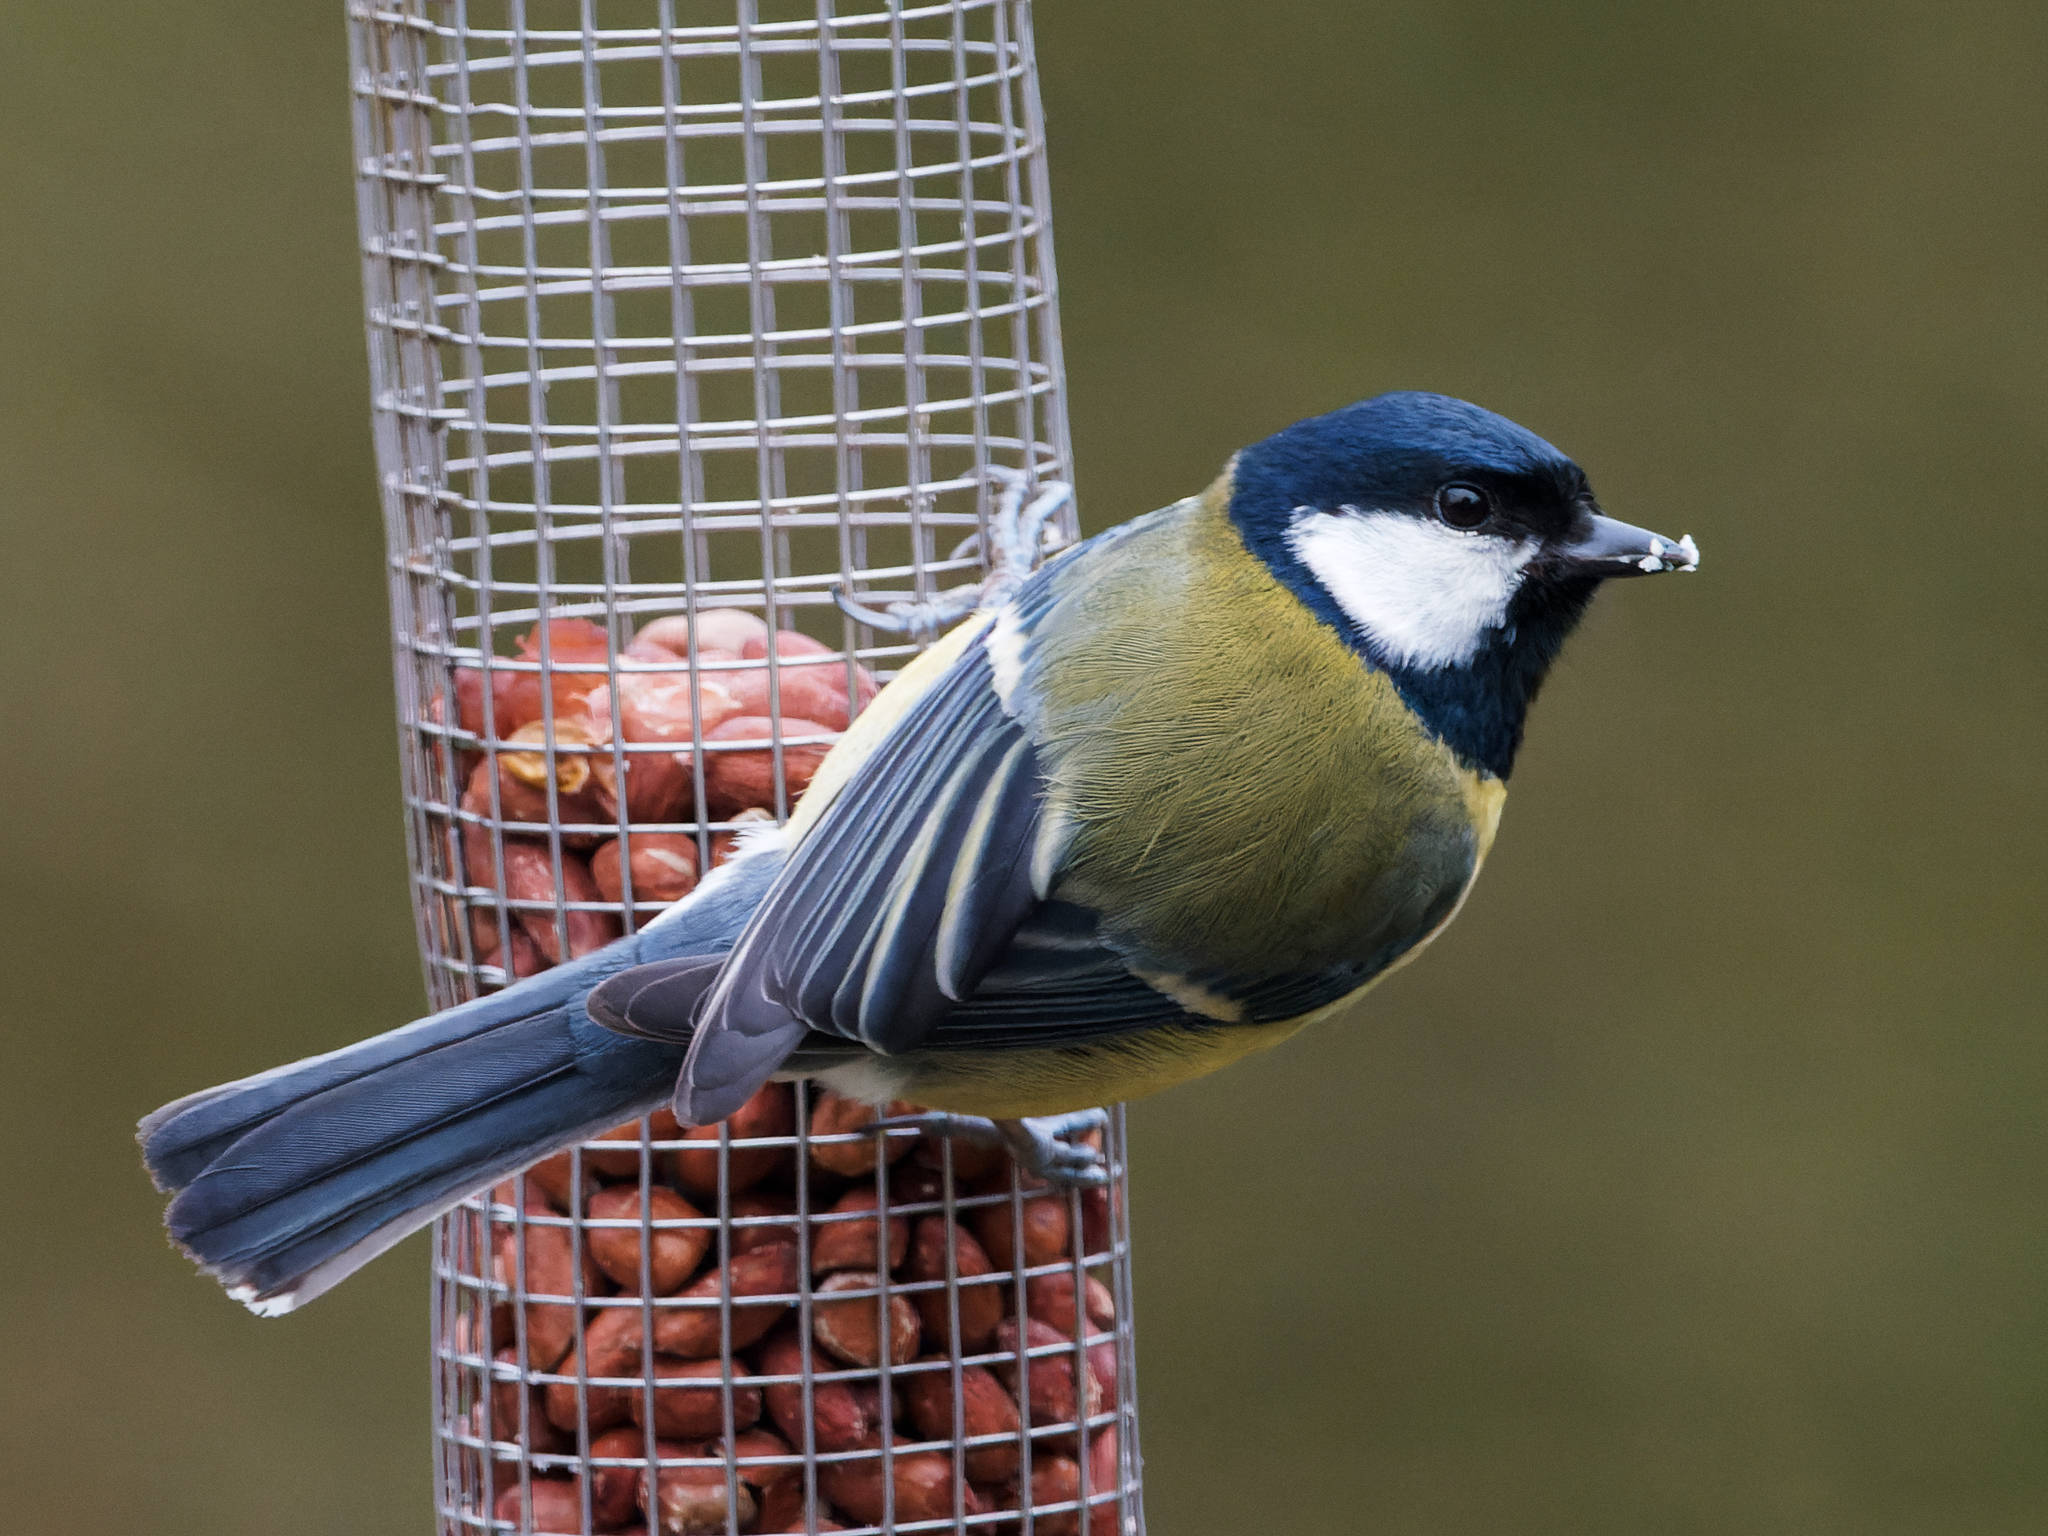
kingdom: Animalia
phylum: Chordata
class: Aves
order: Passeriformes
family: Paridae
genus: Parus
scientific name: Parus major
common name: Great tit
